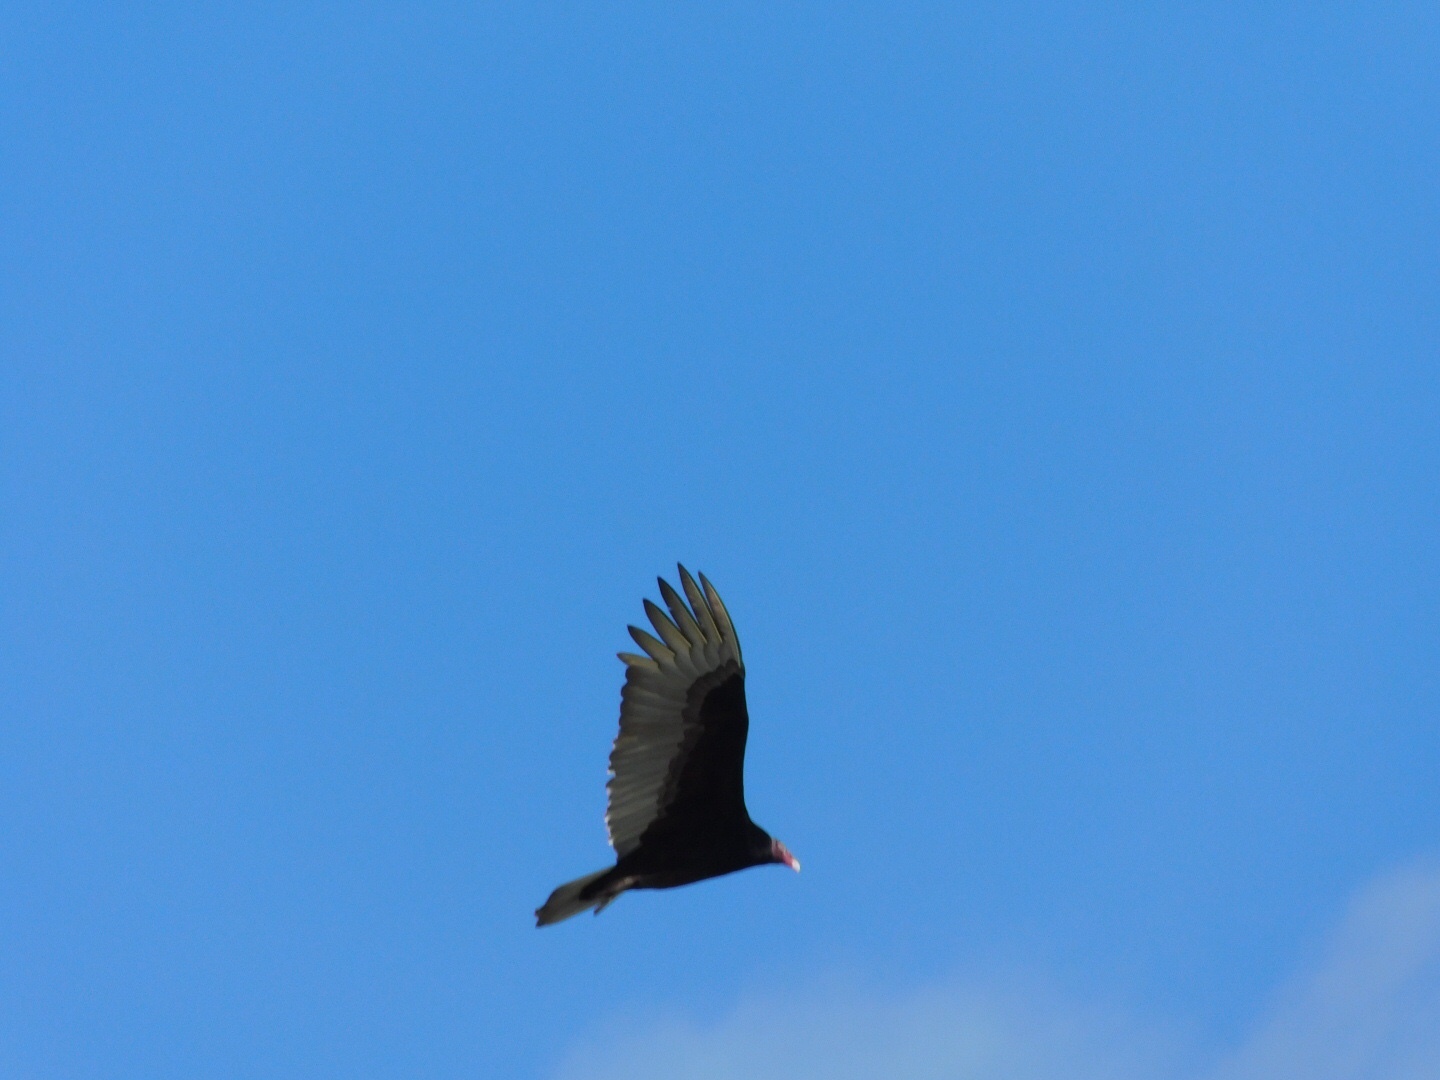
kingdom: Animalia
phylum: Chordata
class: Aves
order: Accipitriformes
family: Cathartidae
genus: Cathartes
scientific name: Cathartes aura
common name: Turkey vulture
